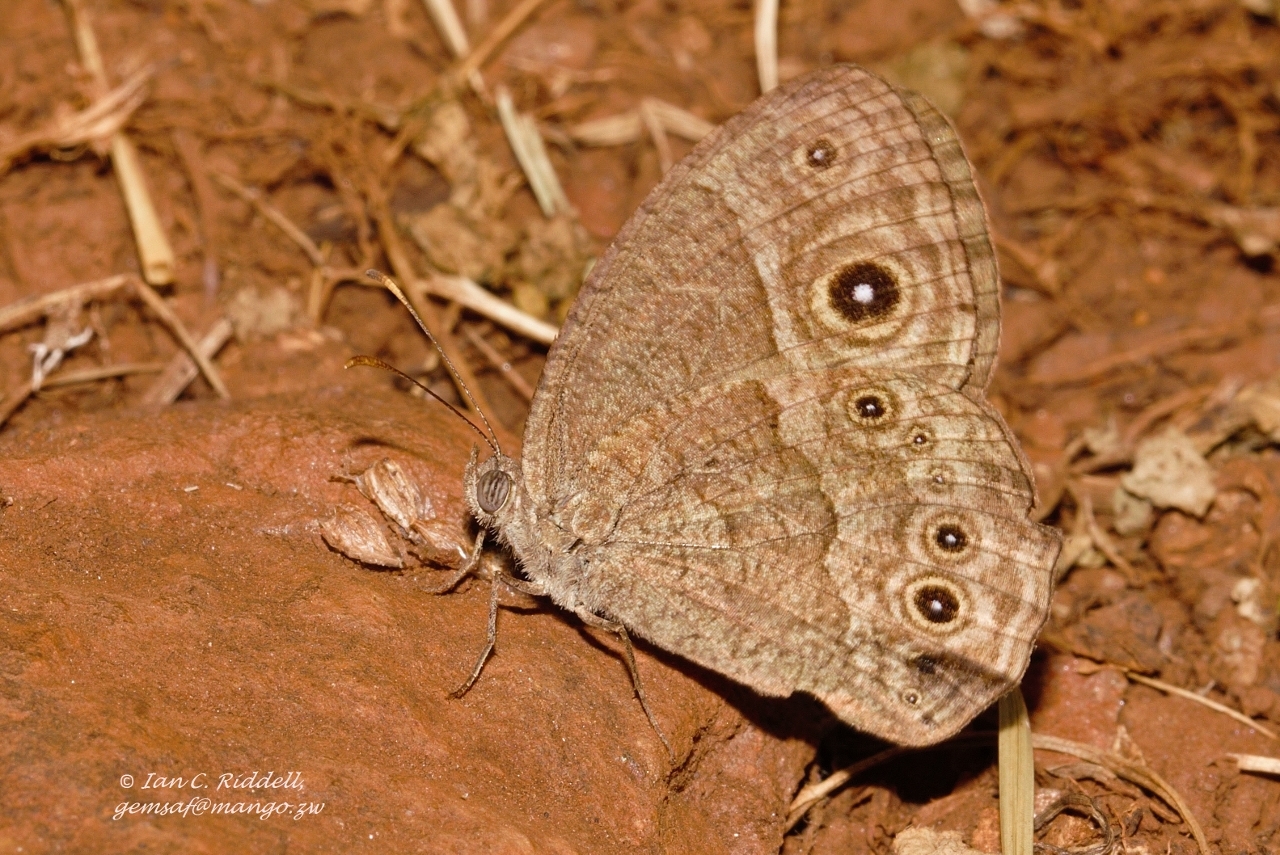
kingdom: Animalia
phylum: Arthropoda
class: Insecta
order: Lepidoptera
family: Nymphalidae
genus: Mycalesis
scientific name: Mycalesis ena
